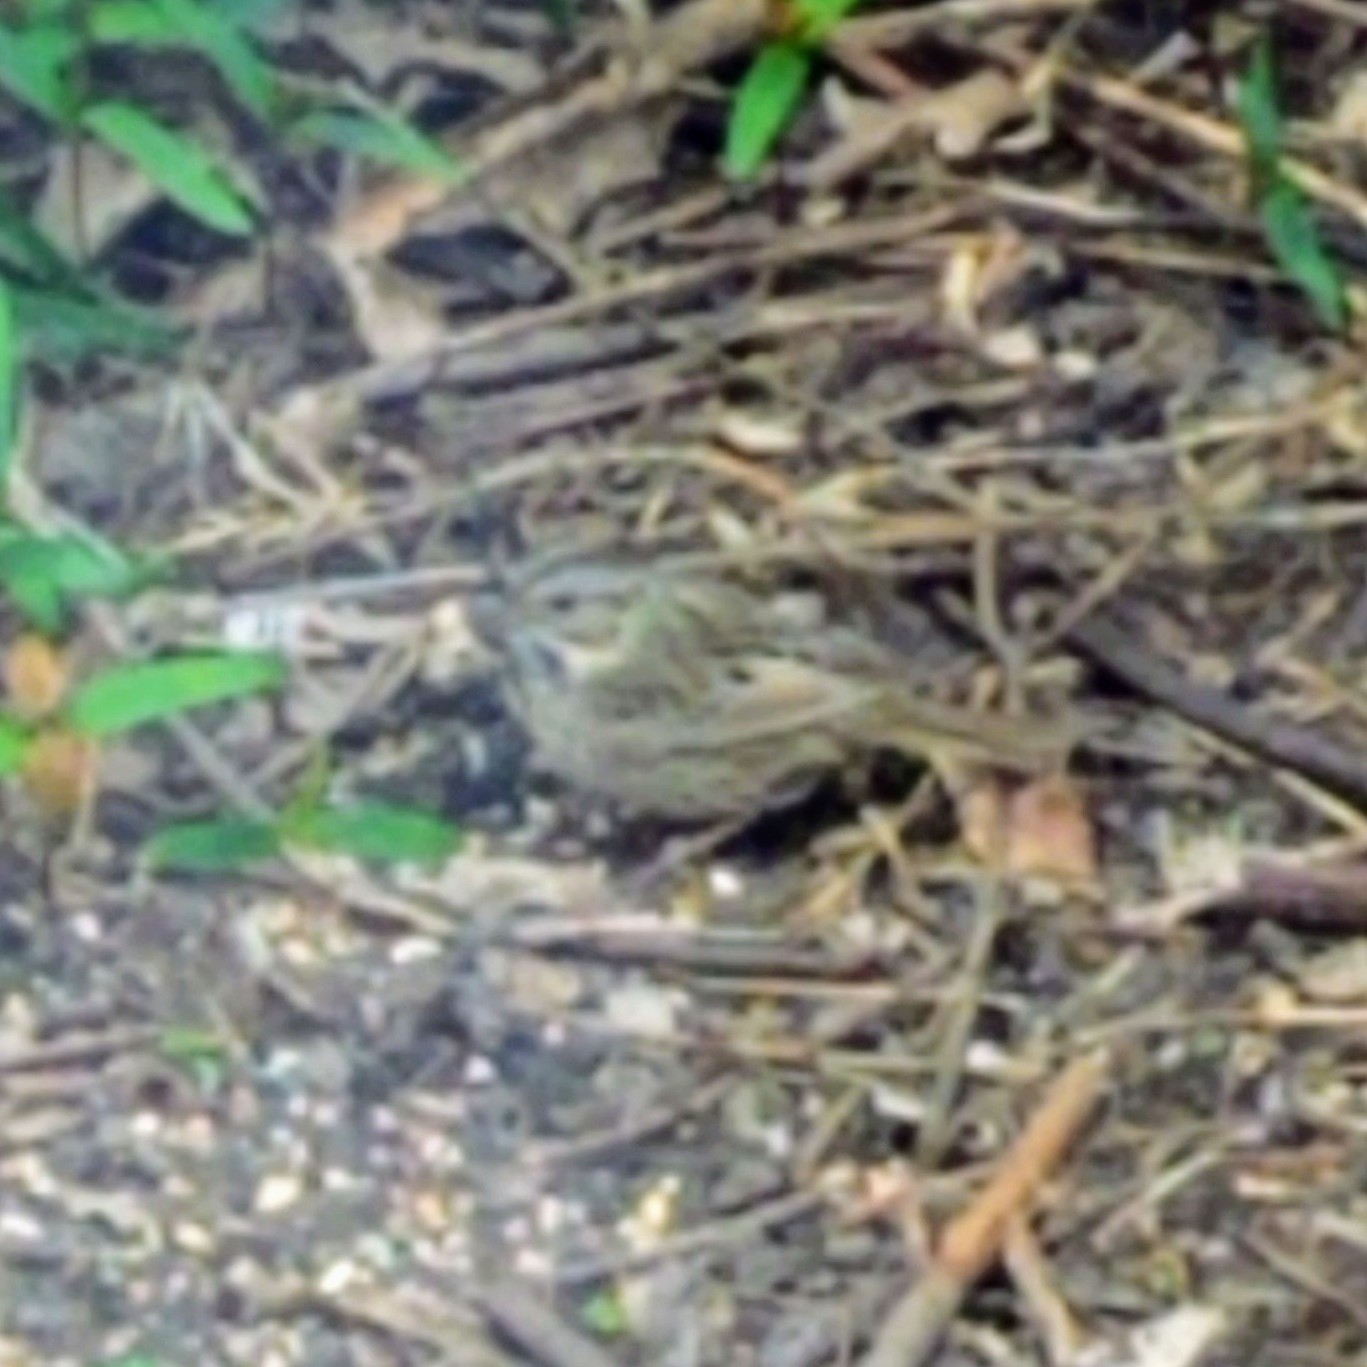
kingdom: Animalia
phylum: Chordata
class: Aves
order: Passeriformes
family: Passerellidae
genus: Melospiza
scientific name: Melospiza lincolnii
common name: Lincoln's sparrow
